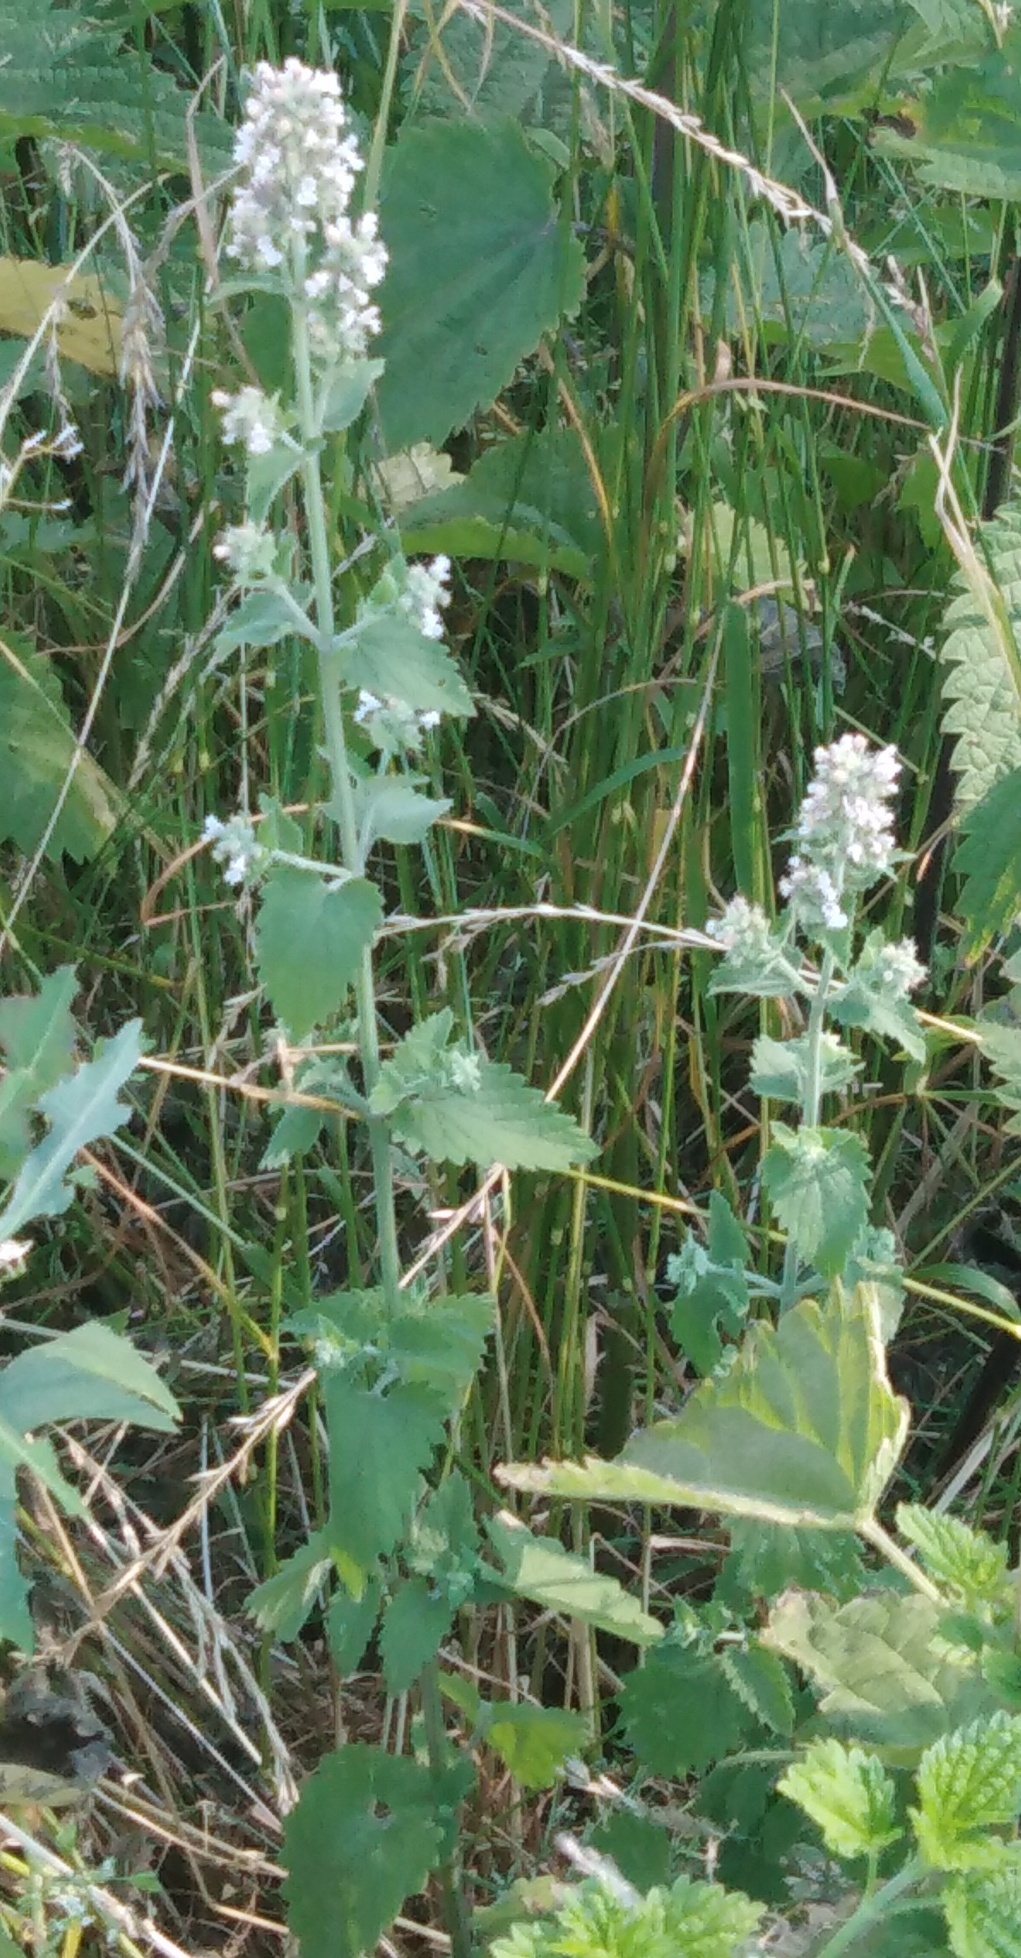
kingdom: Plantae
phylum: Tracheophyta
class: Magnoliopsida
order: Lamiales
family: Lamiaceae
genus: Nepeta
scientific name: Nepeta cataria
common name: Catnip
